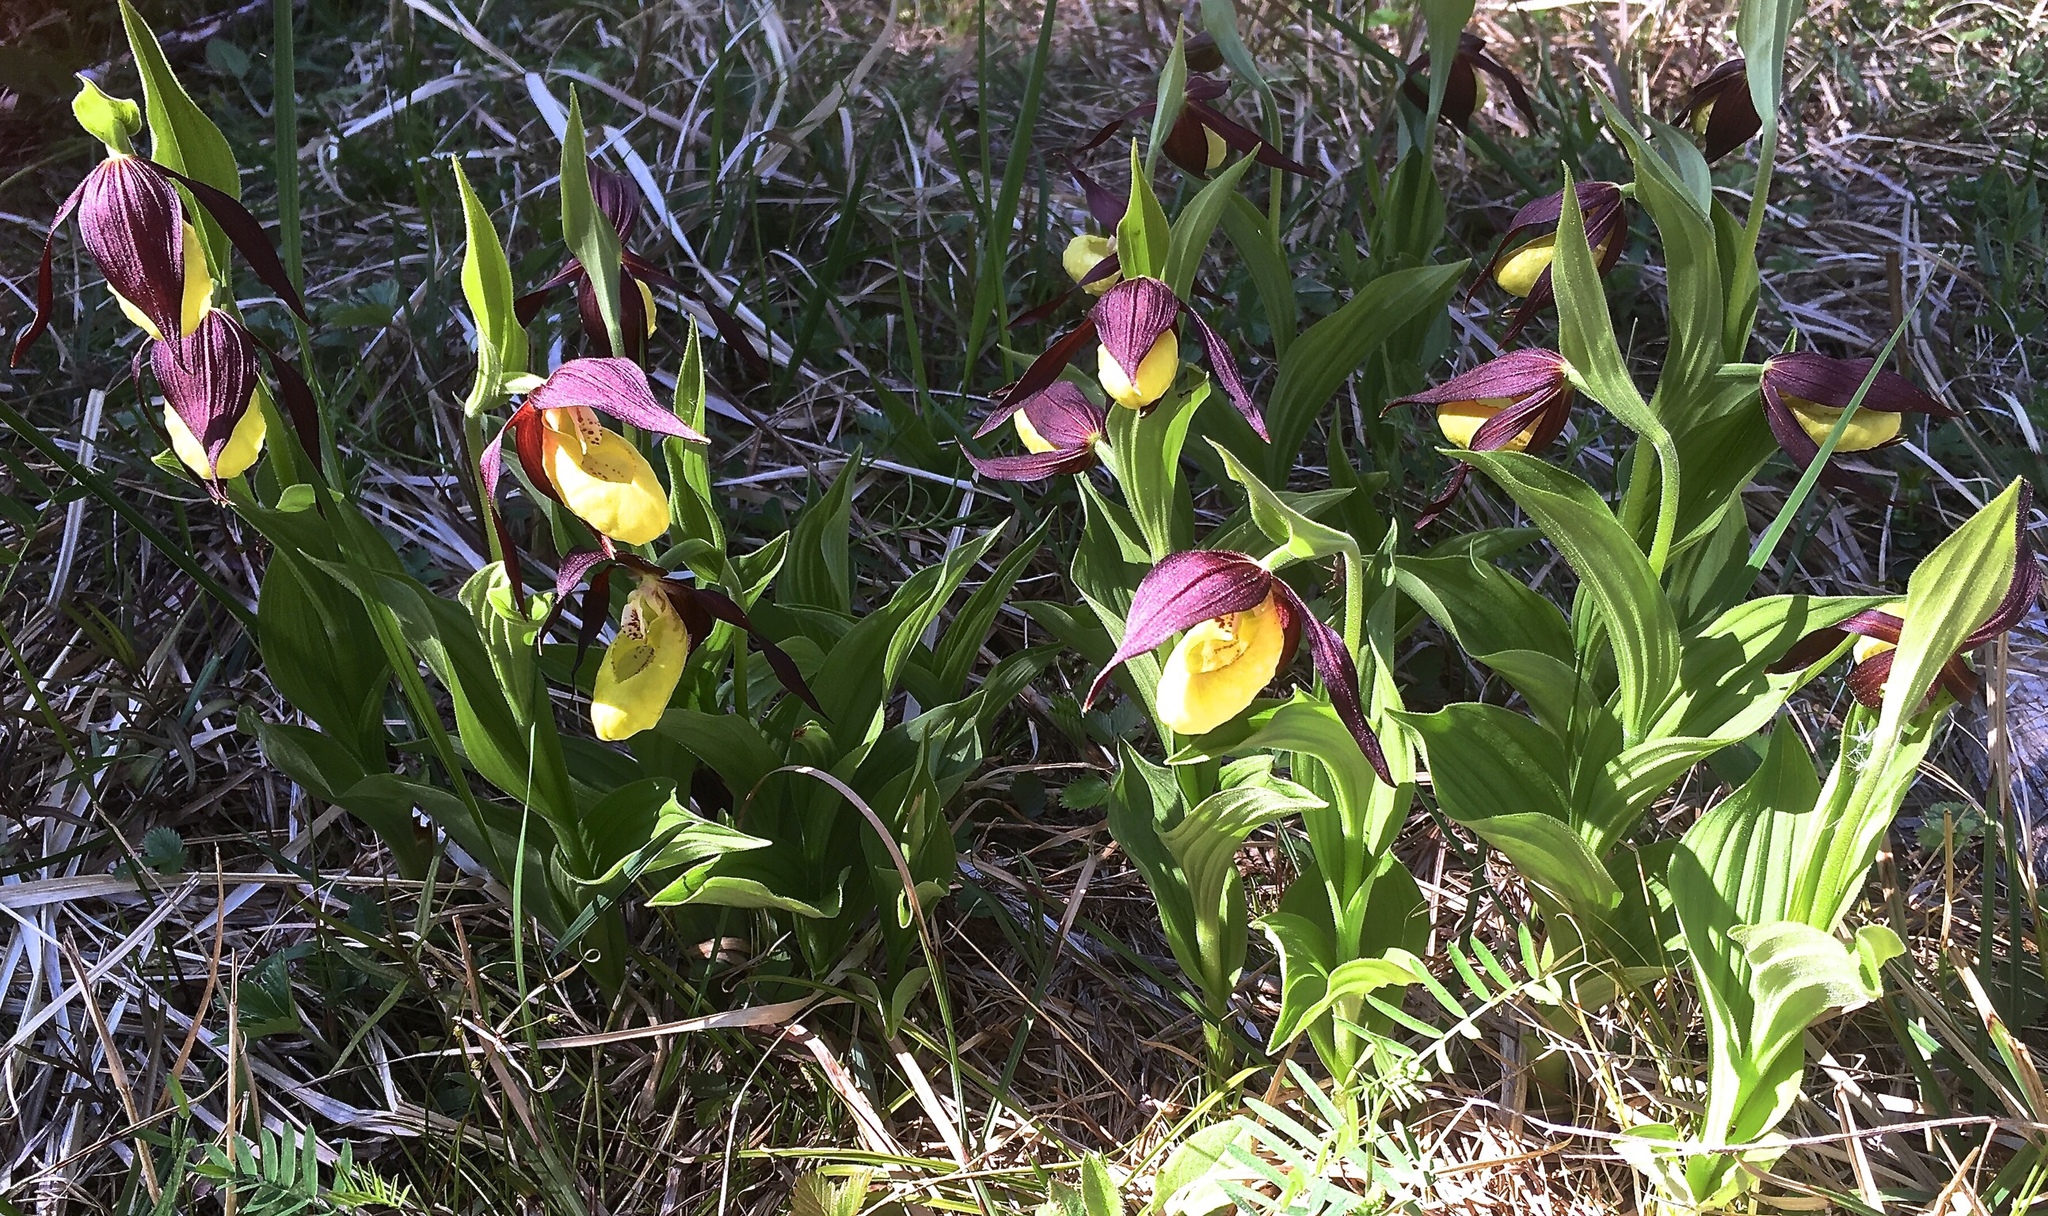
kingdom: Plantae
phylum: Tracheophyta
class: Liliopsida
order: Asparagales
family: Orchidaceae
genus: Cypripedium
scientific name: Cypripedium calceolus
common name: Lady's-slipper
